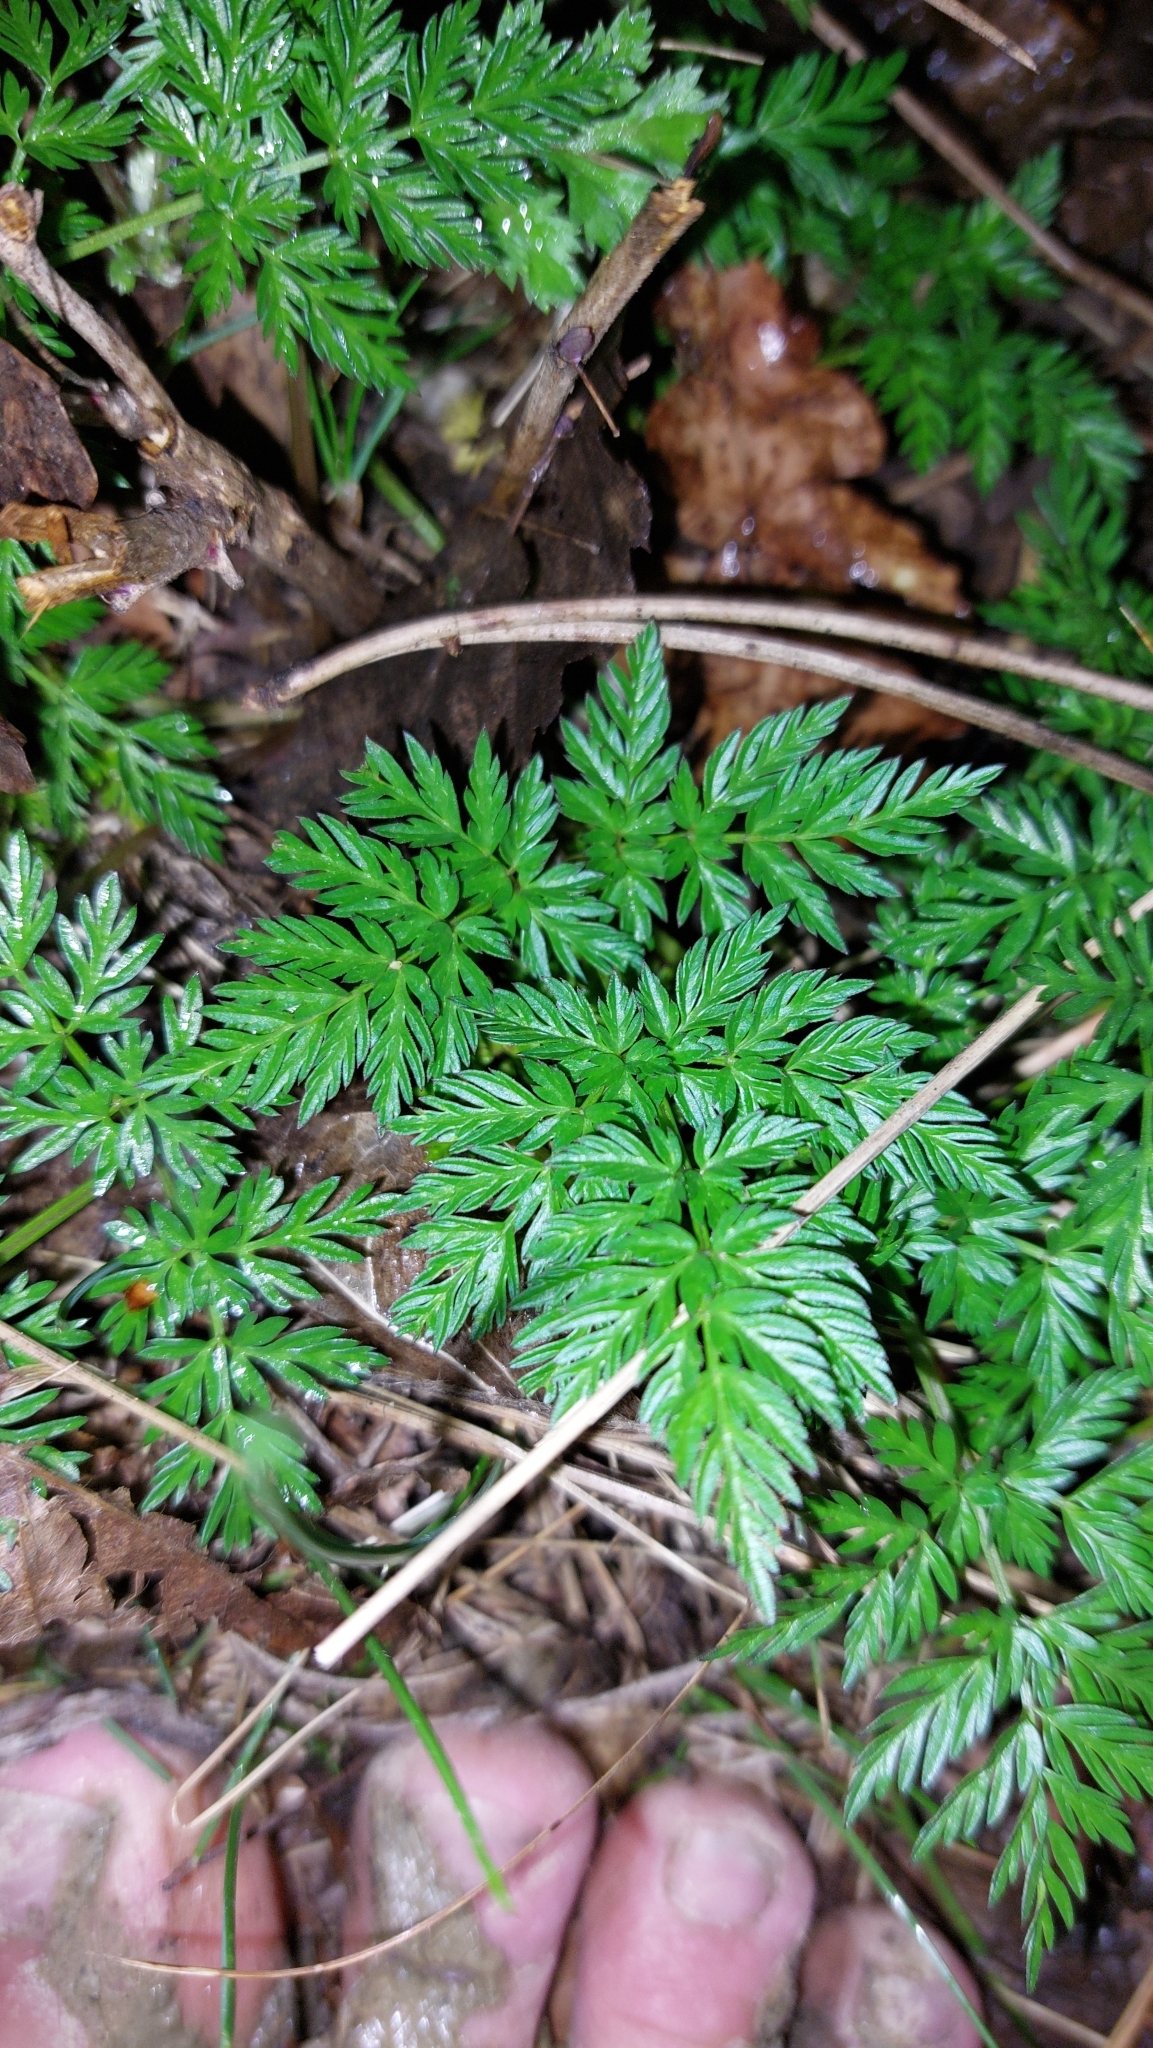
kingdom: Plantae
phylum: Tracheophyta
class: Magnoliopsida
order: Apiales
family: Apiaceae
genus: Anthriscus
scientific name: Anthriscus sylvestris
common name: Cow parsley
